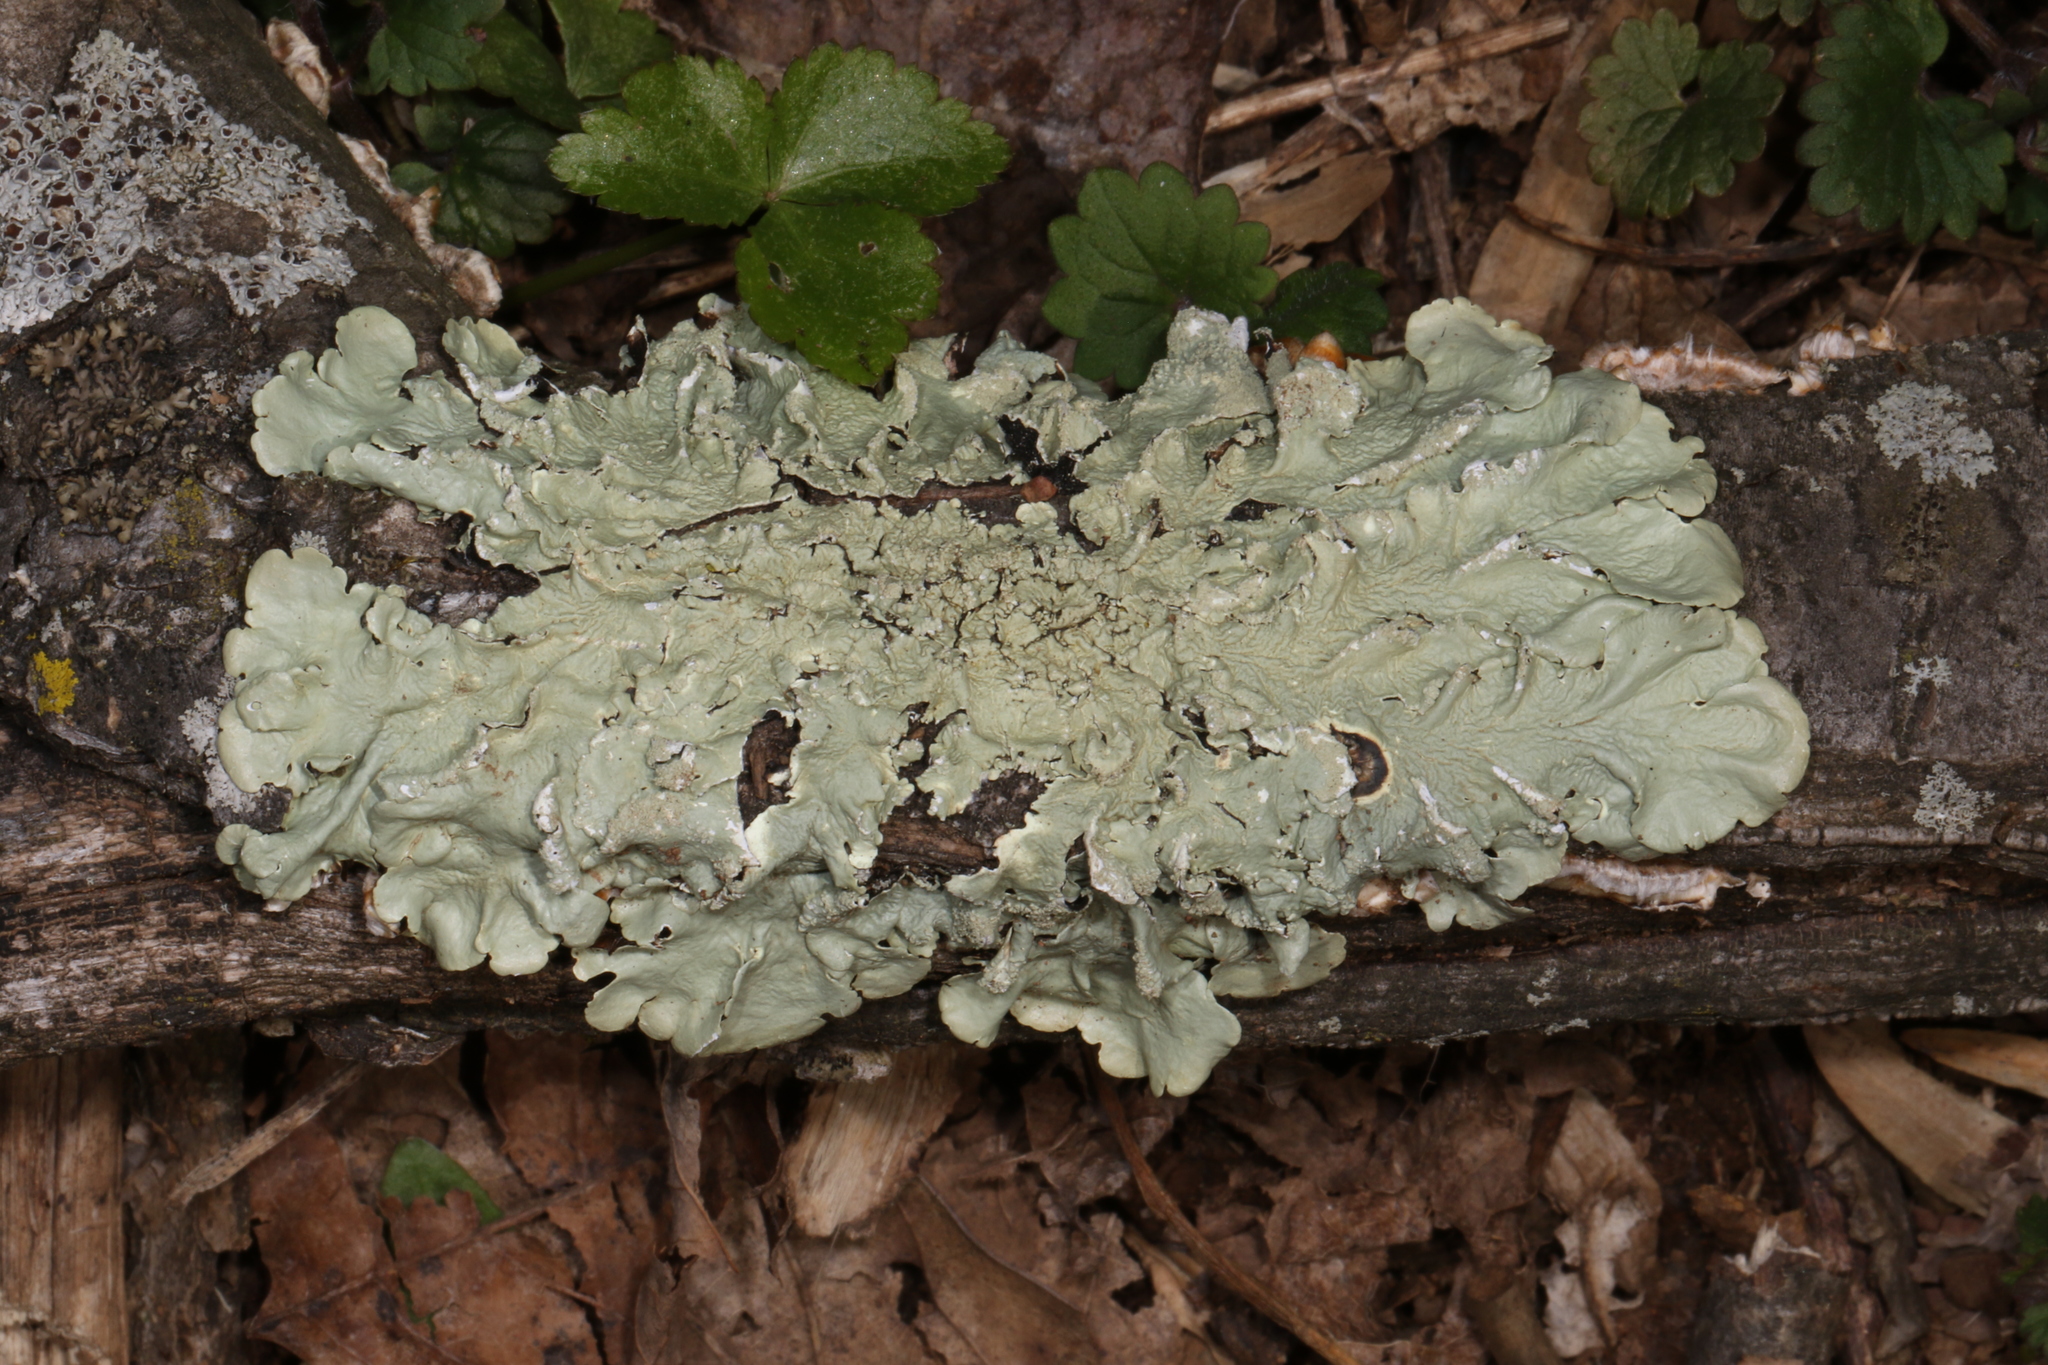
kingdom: Fungi
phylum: Ascomycota
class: Lecanoromycetes
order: Lecanorales
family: Parmeliaceae
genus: Flavoparmelia
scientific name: Flavoparmelia caperata
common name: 40-mile per hour lichen
